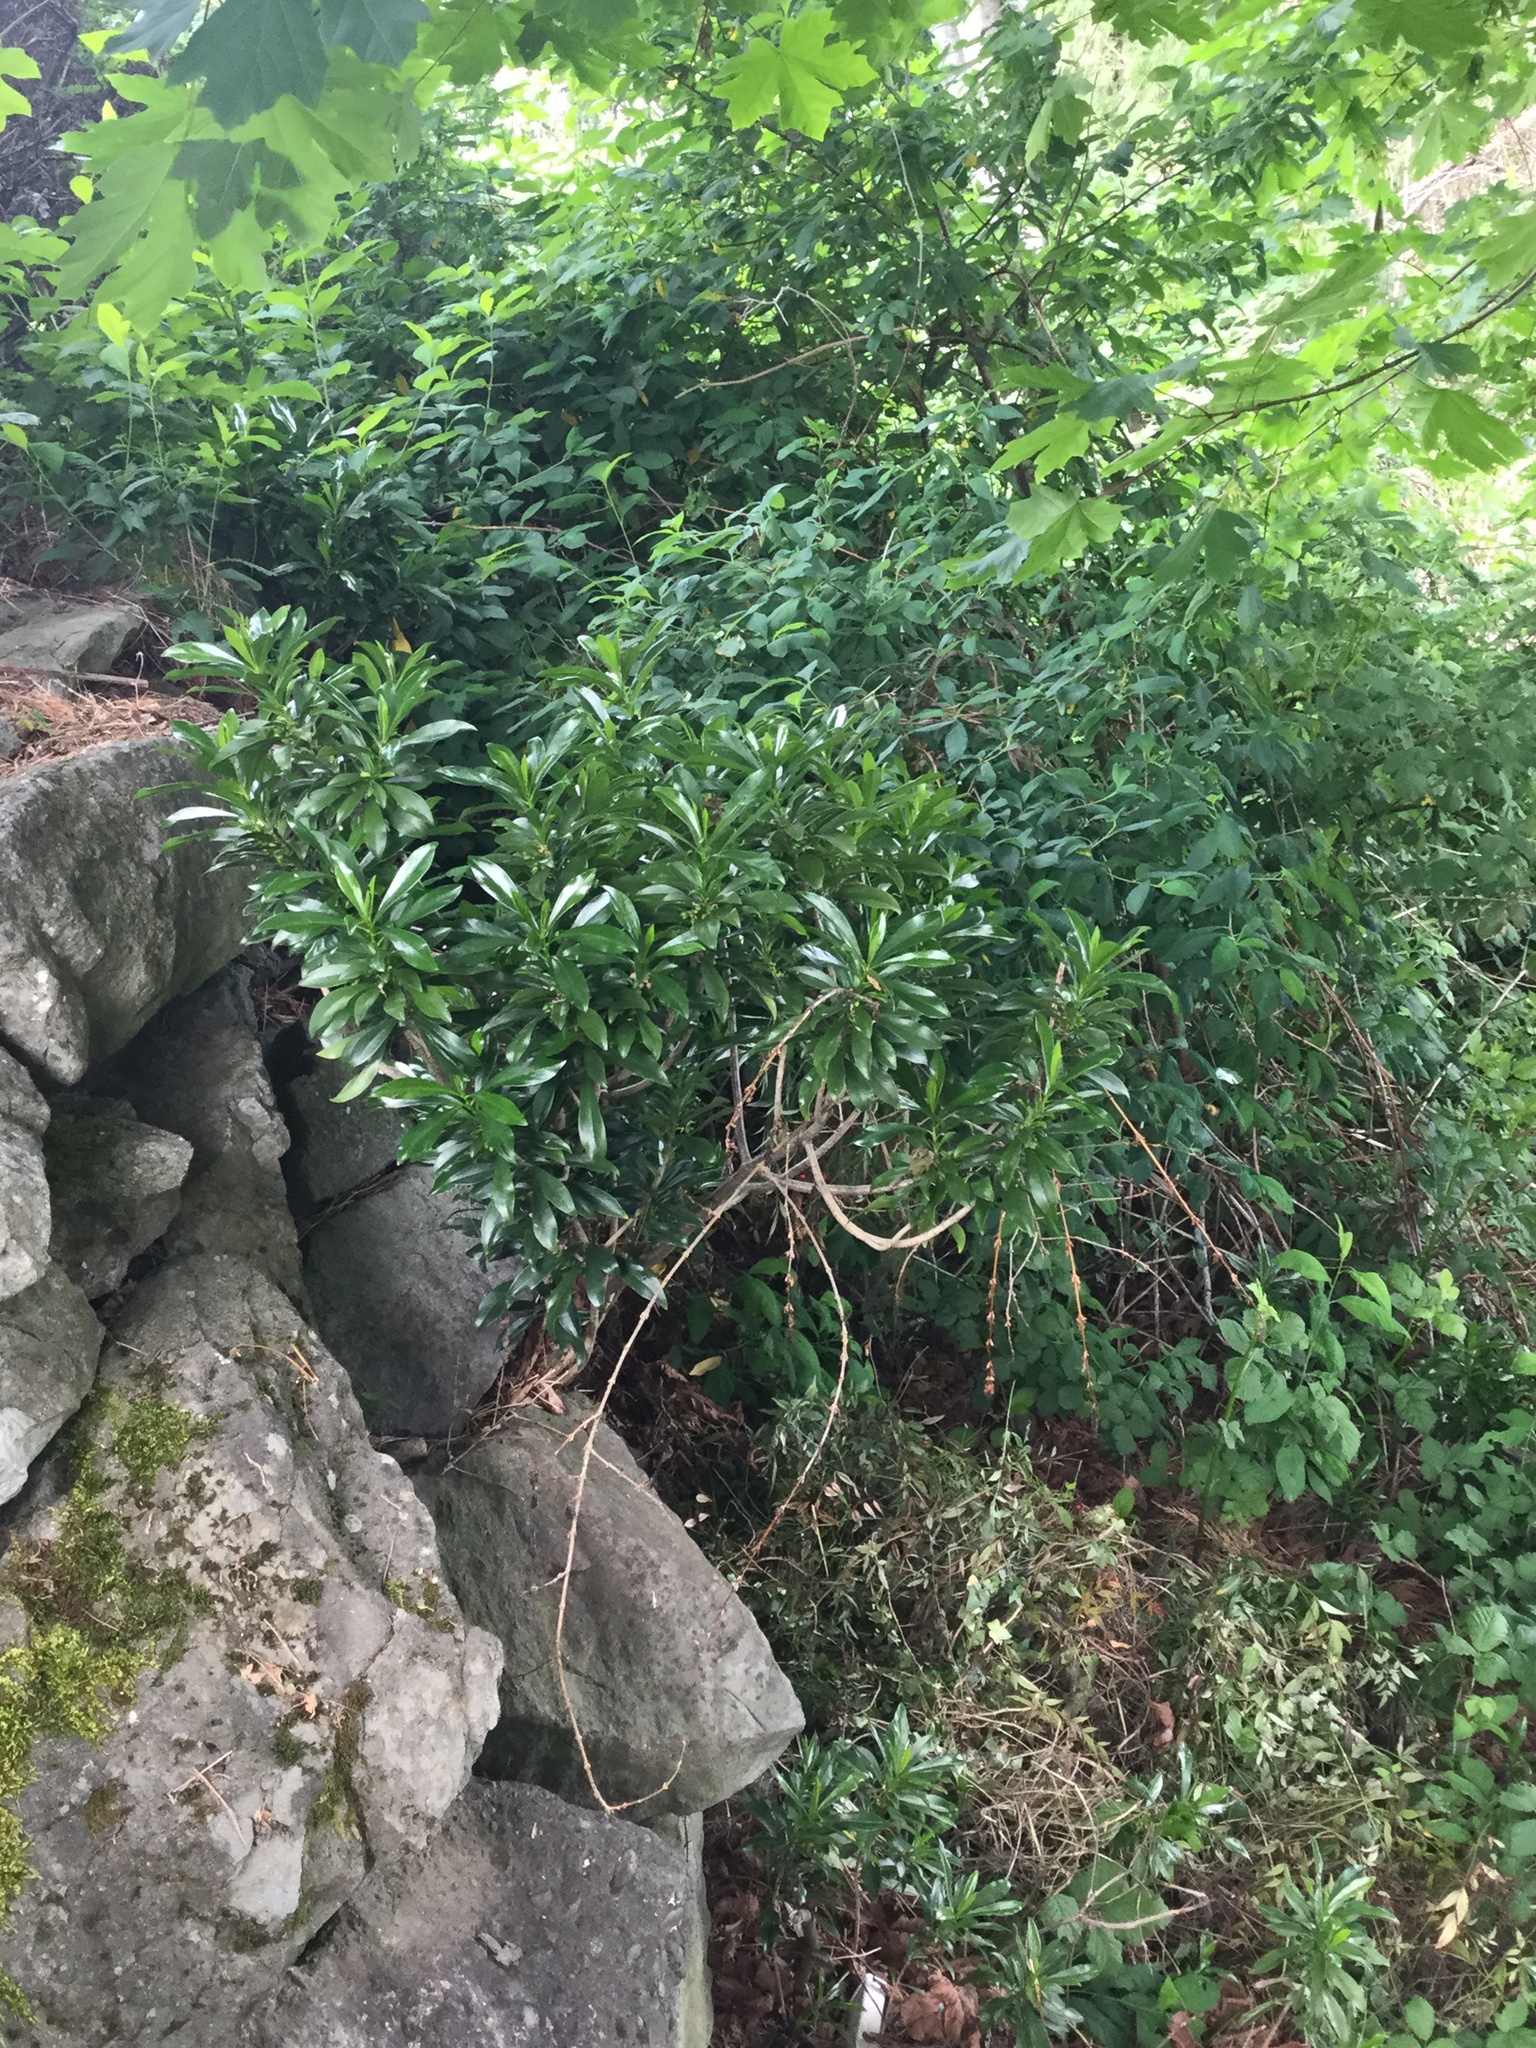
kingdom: Plantae
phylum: Tracheophyta
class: Magnoliopsida
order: Malvales
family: Thymelaeaceae
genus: Daphne
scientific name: Daphne laureola
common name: Spurge-laurel
